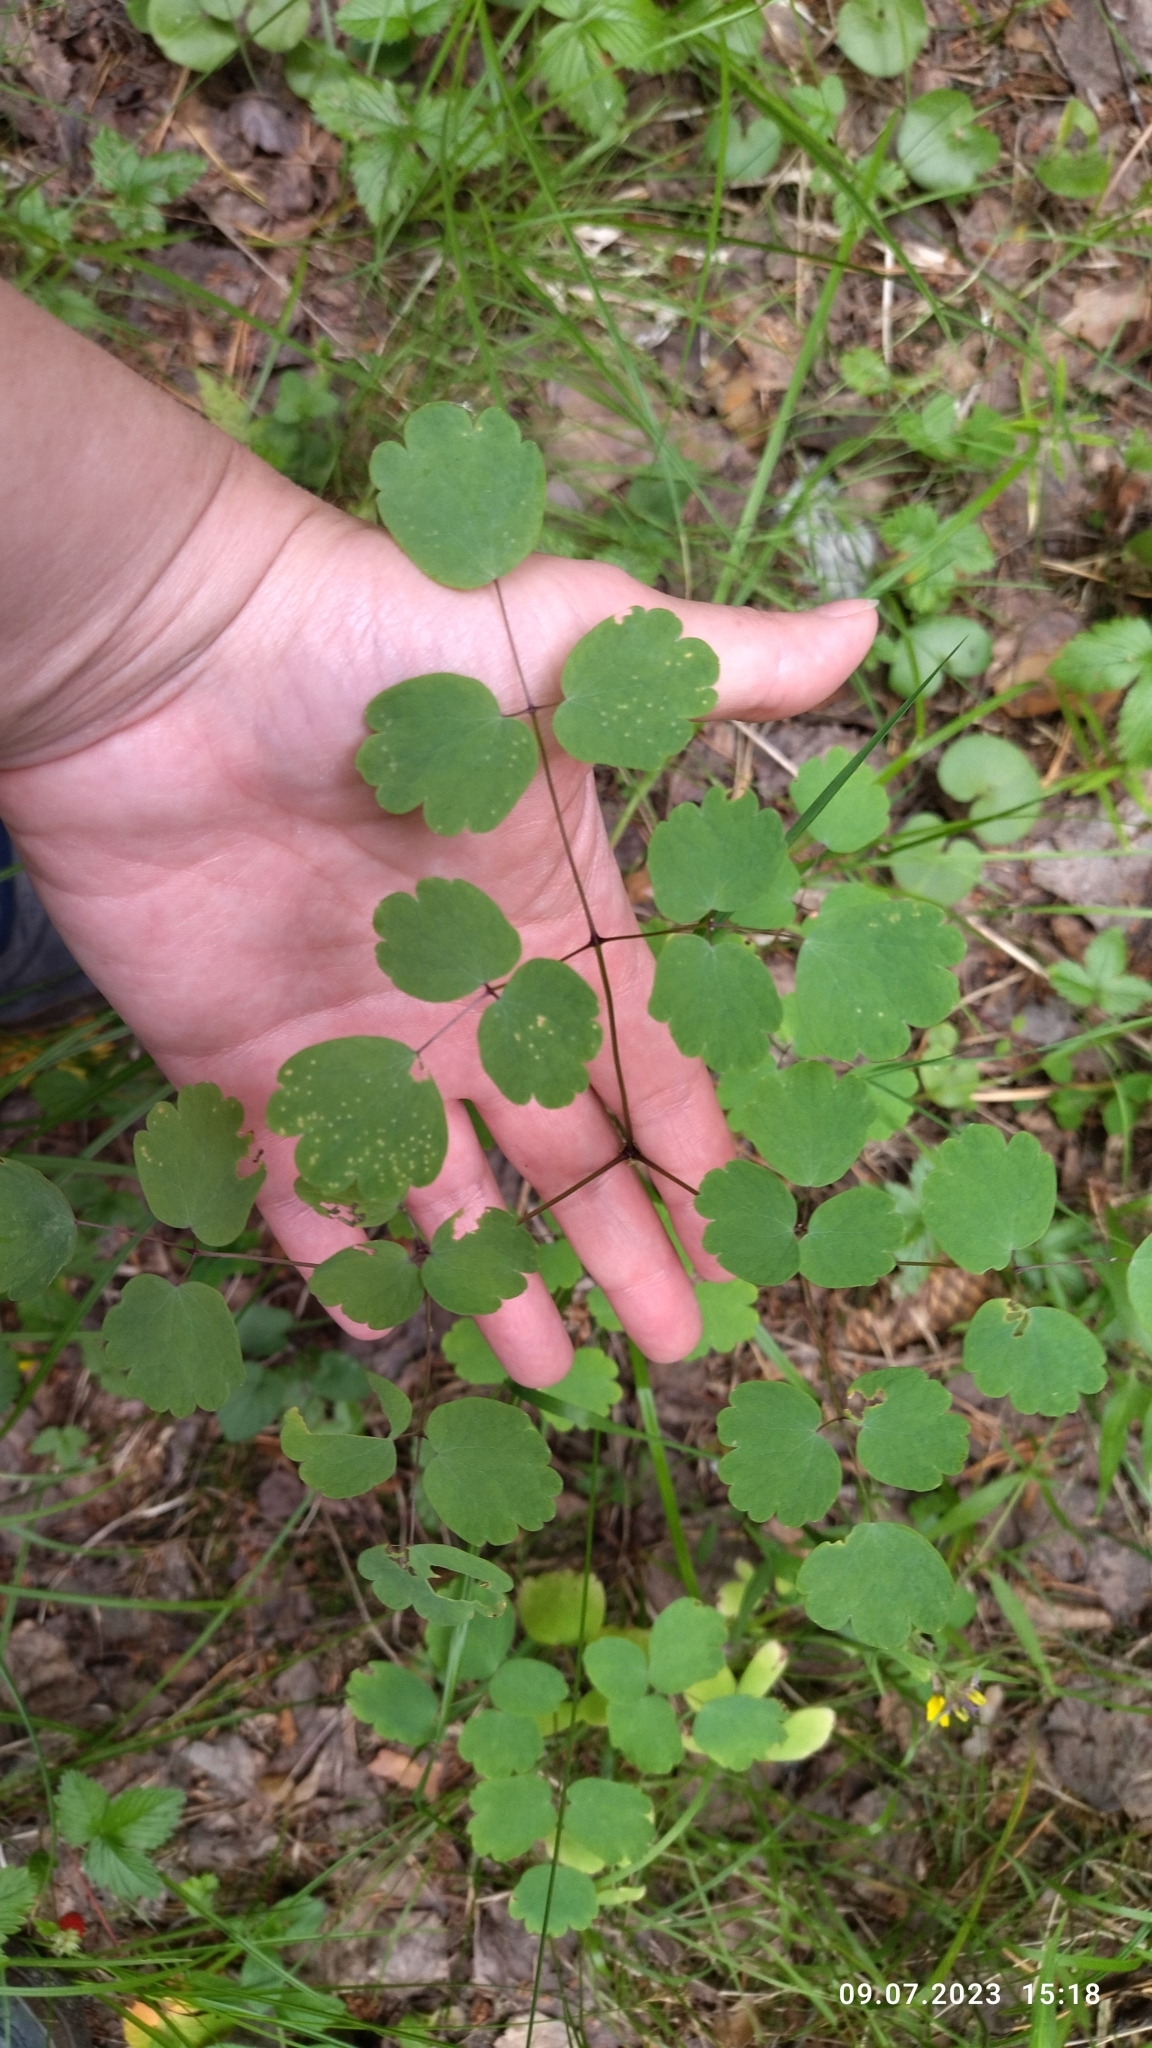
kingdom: Plantae
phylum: Tracheophyta
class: Magnoliopsida
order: Ranunculales
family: Ranunculaceae
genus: Thalictrum
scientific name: Thalictrum aquilegiifolium
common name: French meadow-rue
